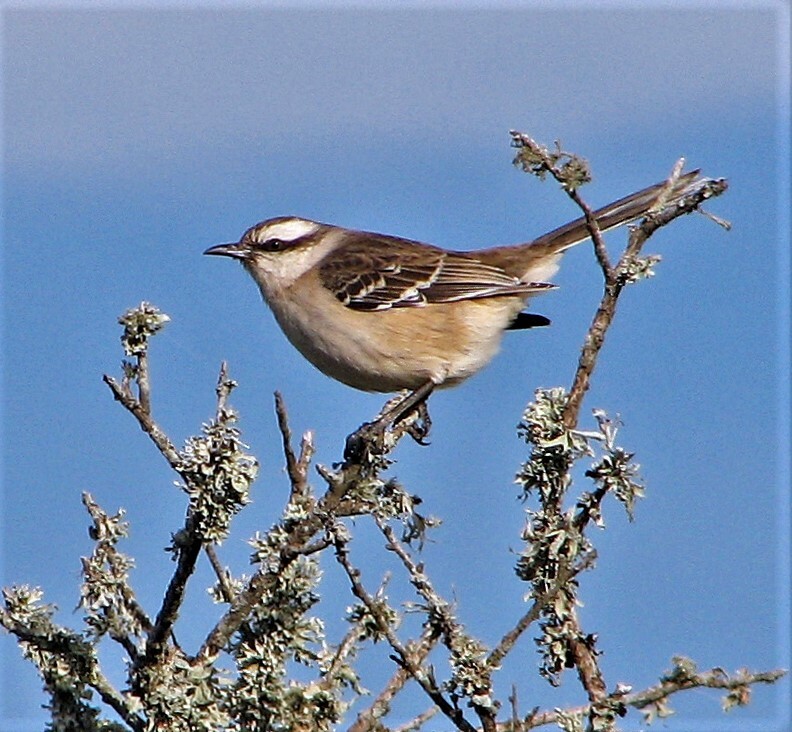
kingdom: Animalia
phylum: Chordata
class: Aves
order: Passeriformes
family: Mimidae
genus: Mimus
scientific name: Mimus saturninus
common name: Chalk-browed mockingbird
